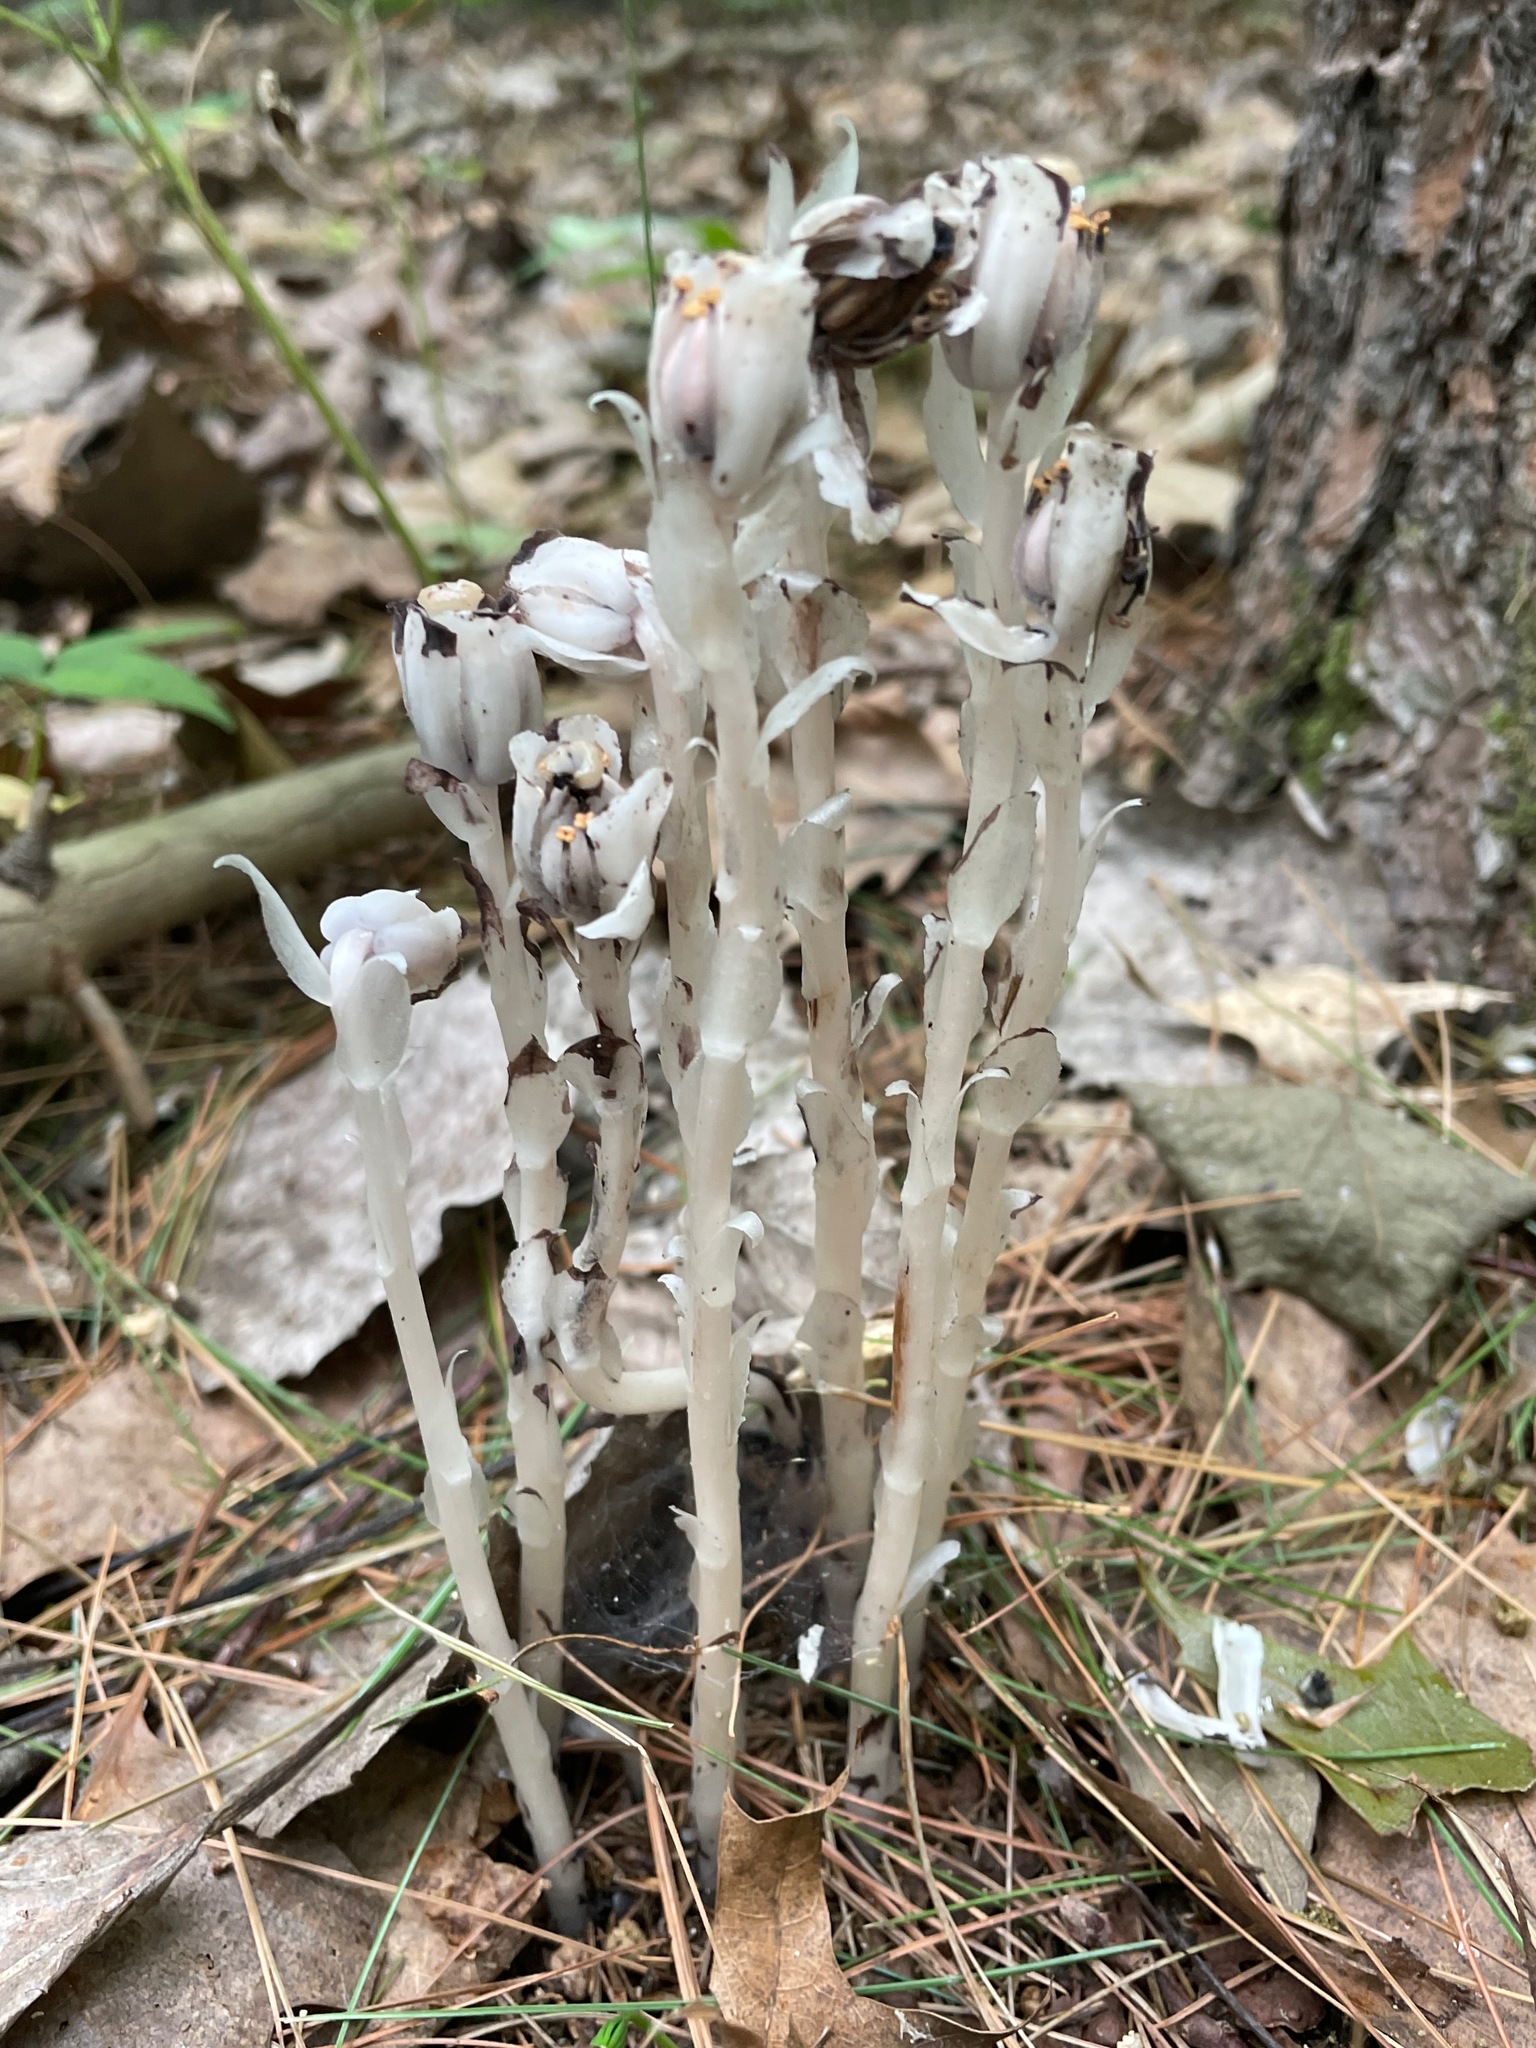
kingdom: Plantae
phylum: Tracheophyta
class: Magnoliopsida
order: Ericales
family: Ericaceae
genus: Monotropa
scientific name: Monotropa uniflora
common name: Convulsion root
